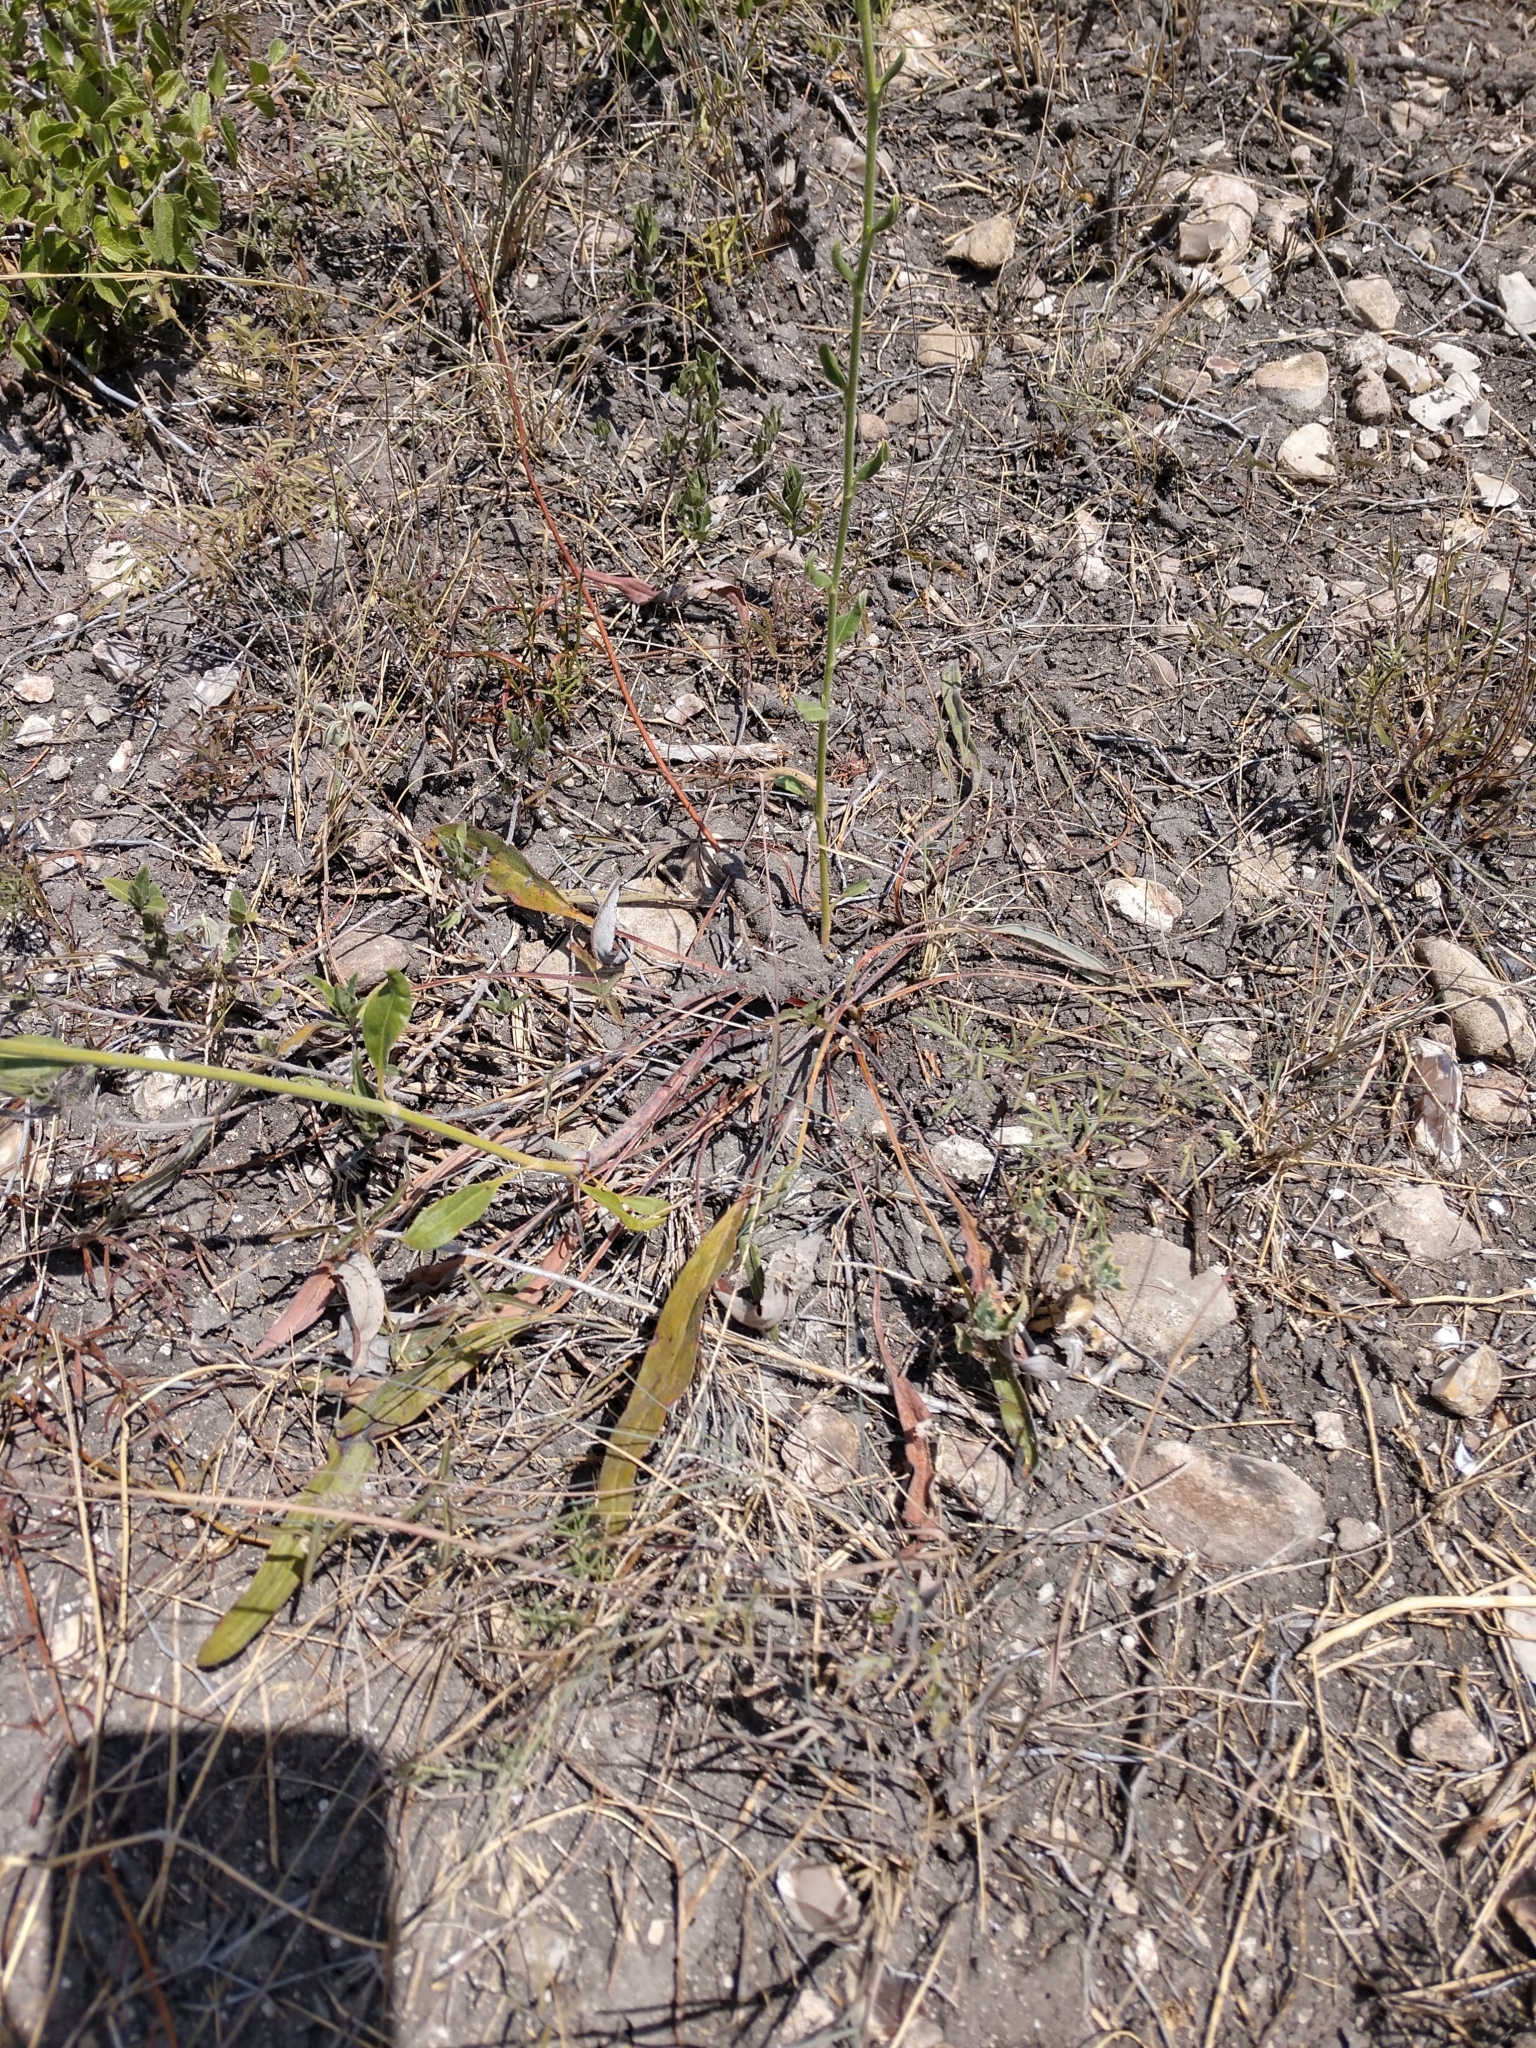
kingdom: Plantae
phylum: Tracheophyta
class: Magnoliopsida
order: Caryophyllales
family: Polygonaceae
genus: Eriogonum
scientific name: Eriogonum longifolium
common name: Longleaf wild buckwheat
